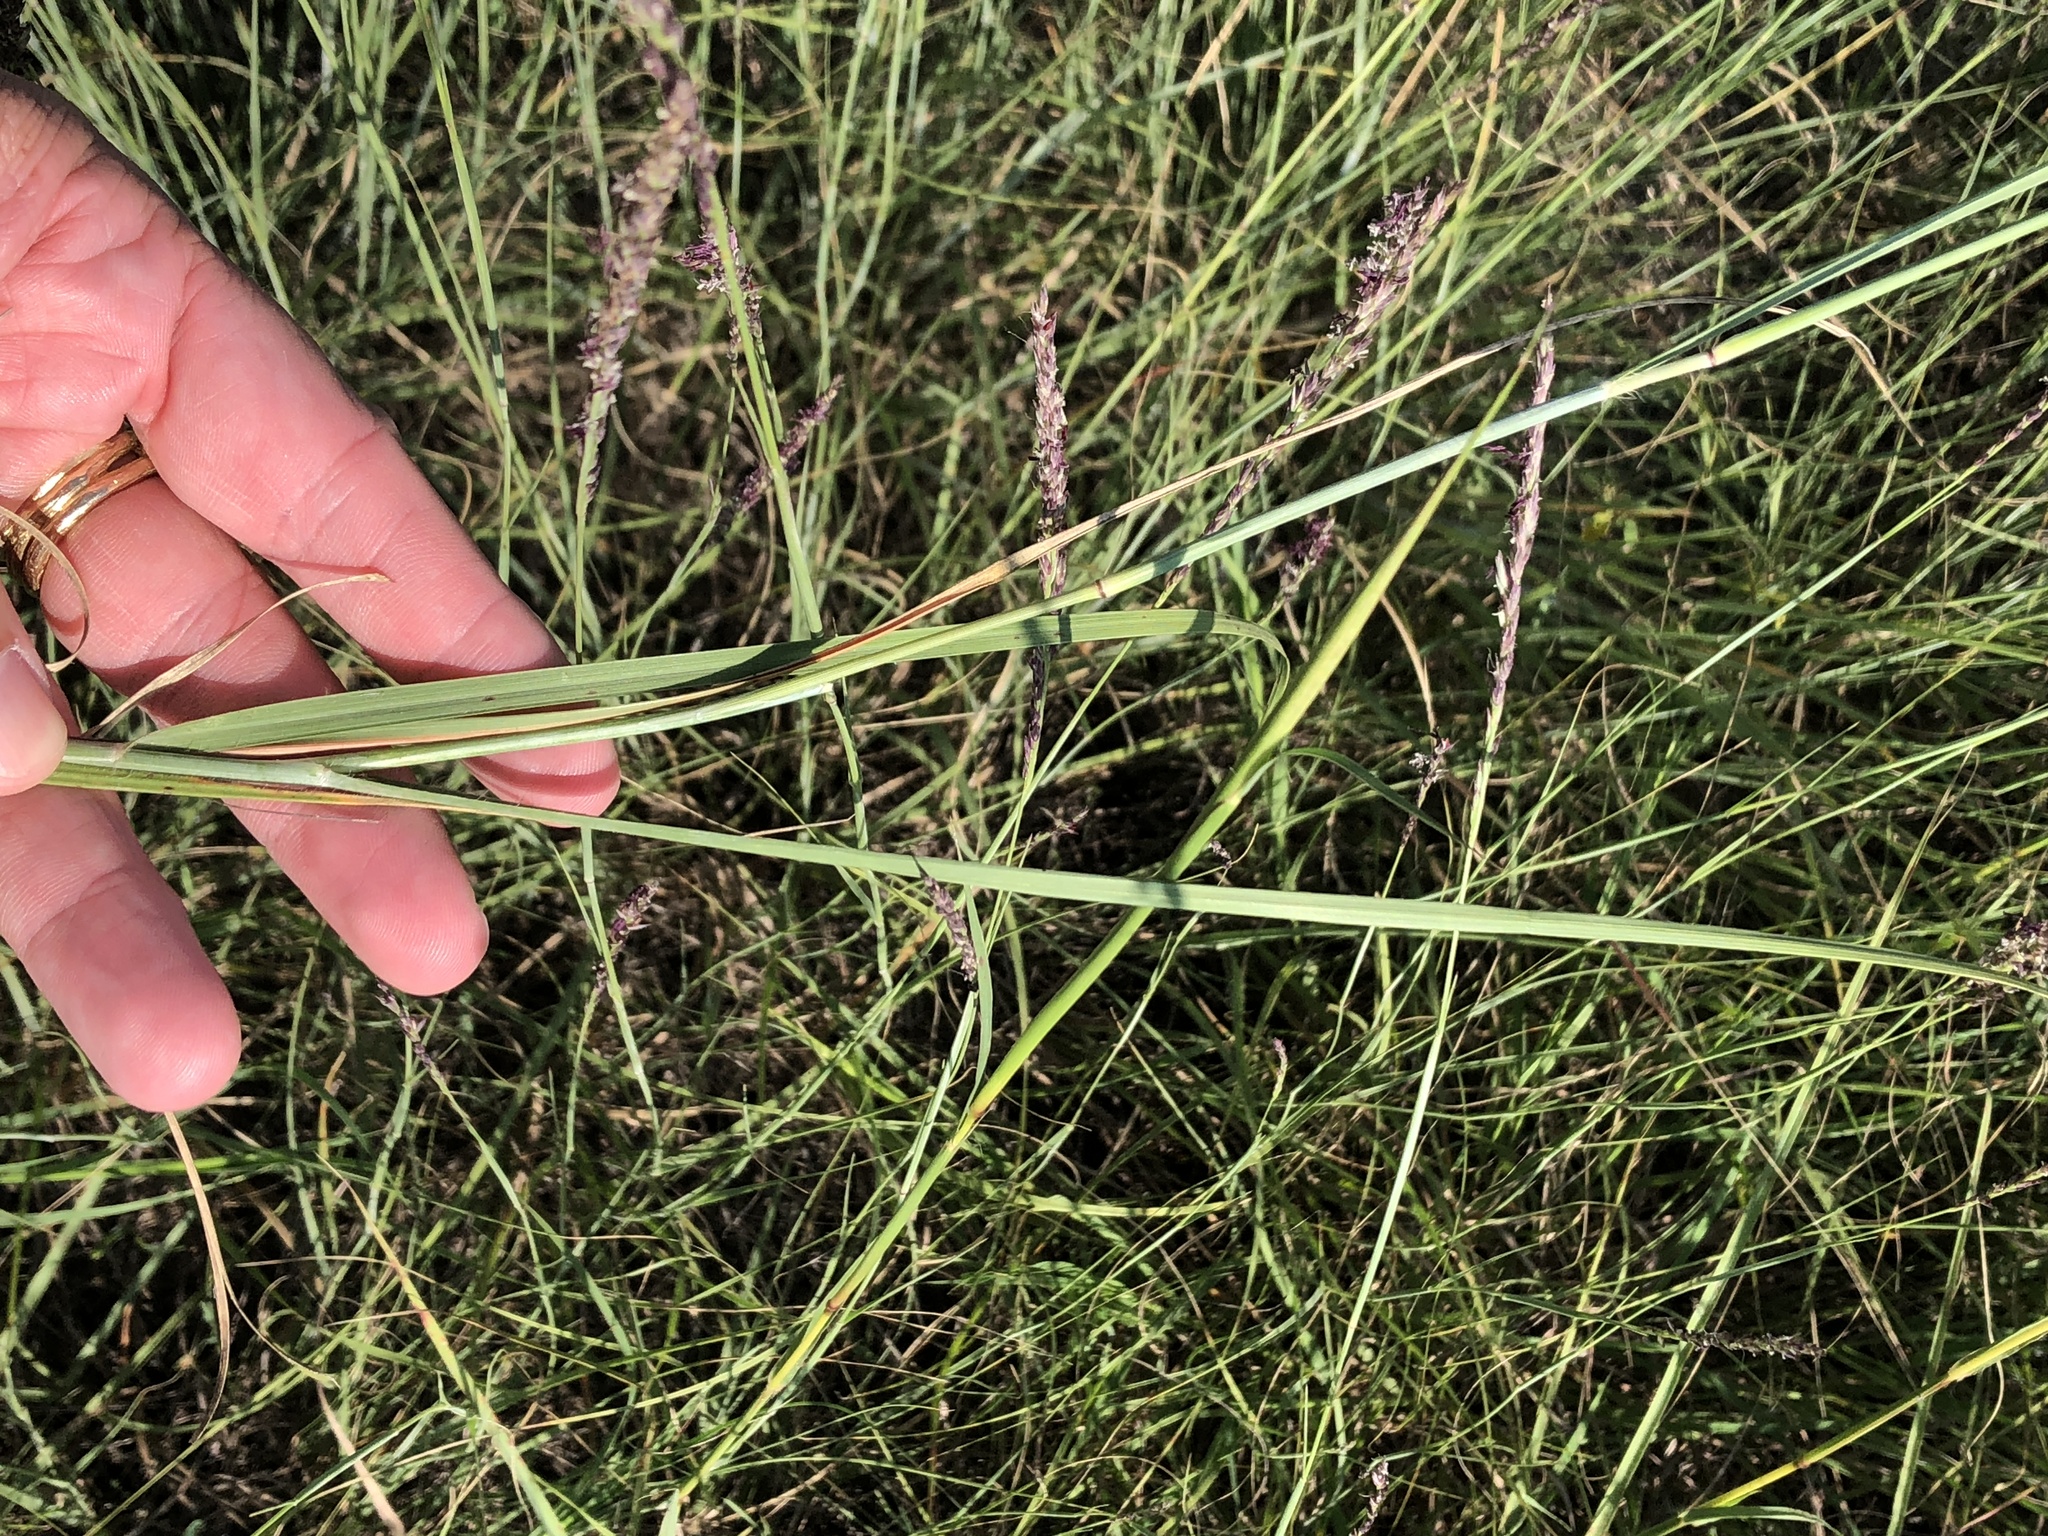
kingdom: Plantae
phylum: Tracheophyta
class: Liliopsida
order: Poales
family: Poaceae
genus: Sporobolus
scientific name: Sporobolus compositus
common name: Rough dropseed
